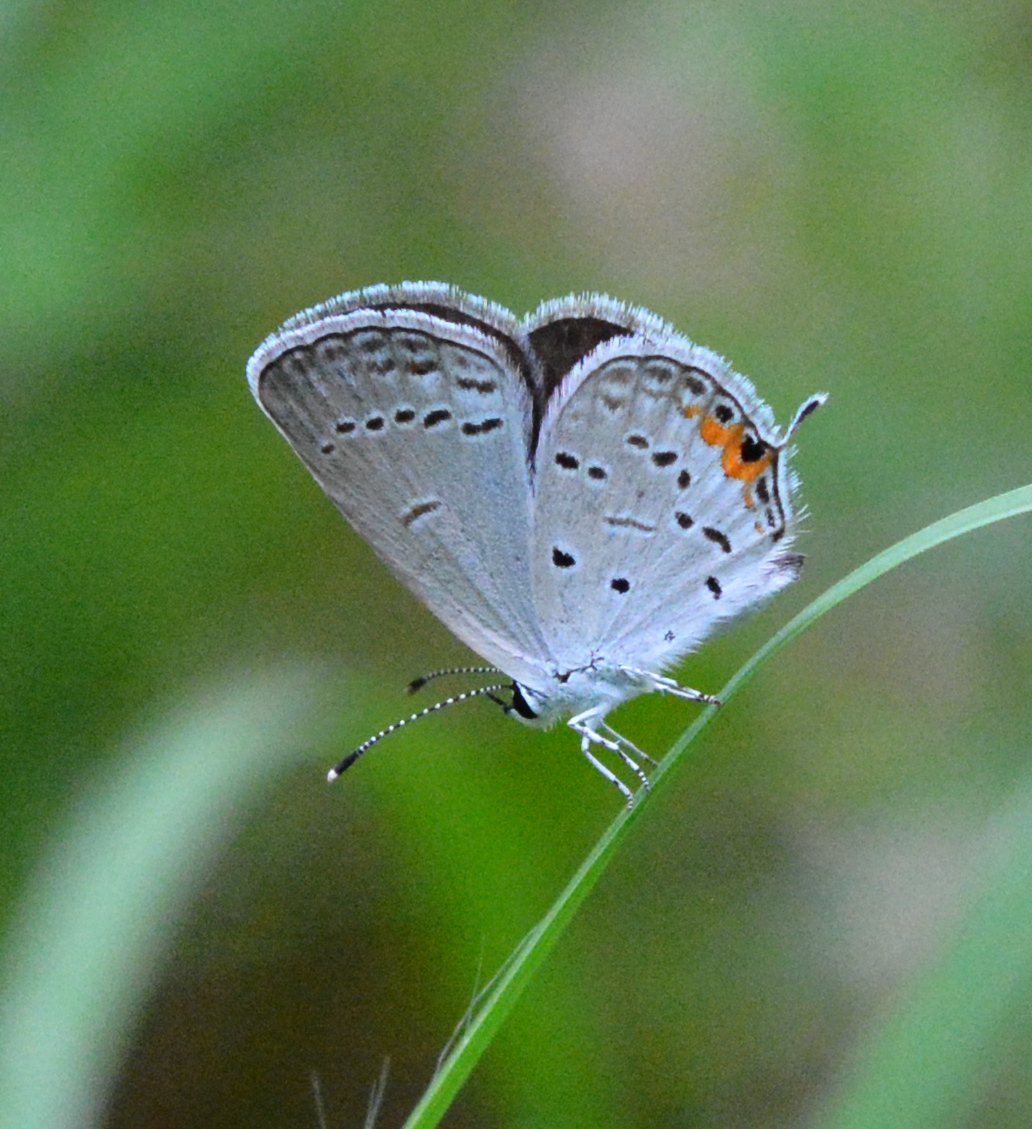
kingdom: Animalia
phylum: Arthropoda
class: Insecta
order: Lepidoptera
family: Lycaenidae
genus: Elkalyce
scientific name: Elkalyce comyntas
